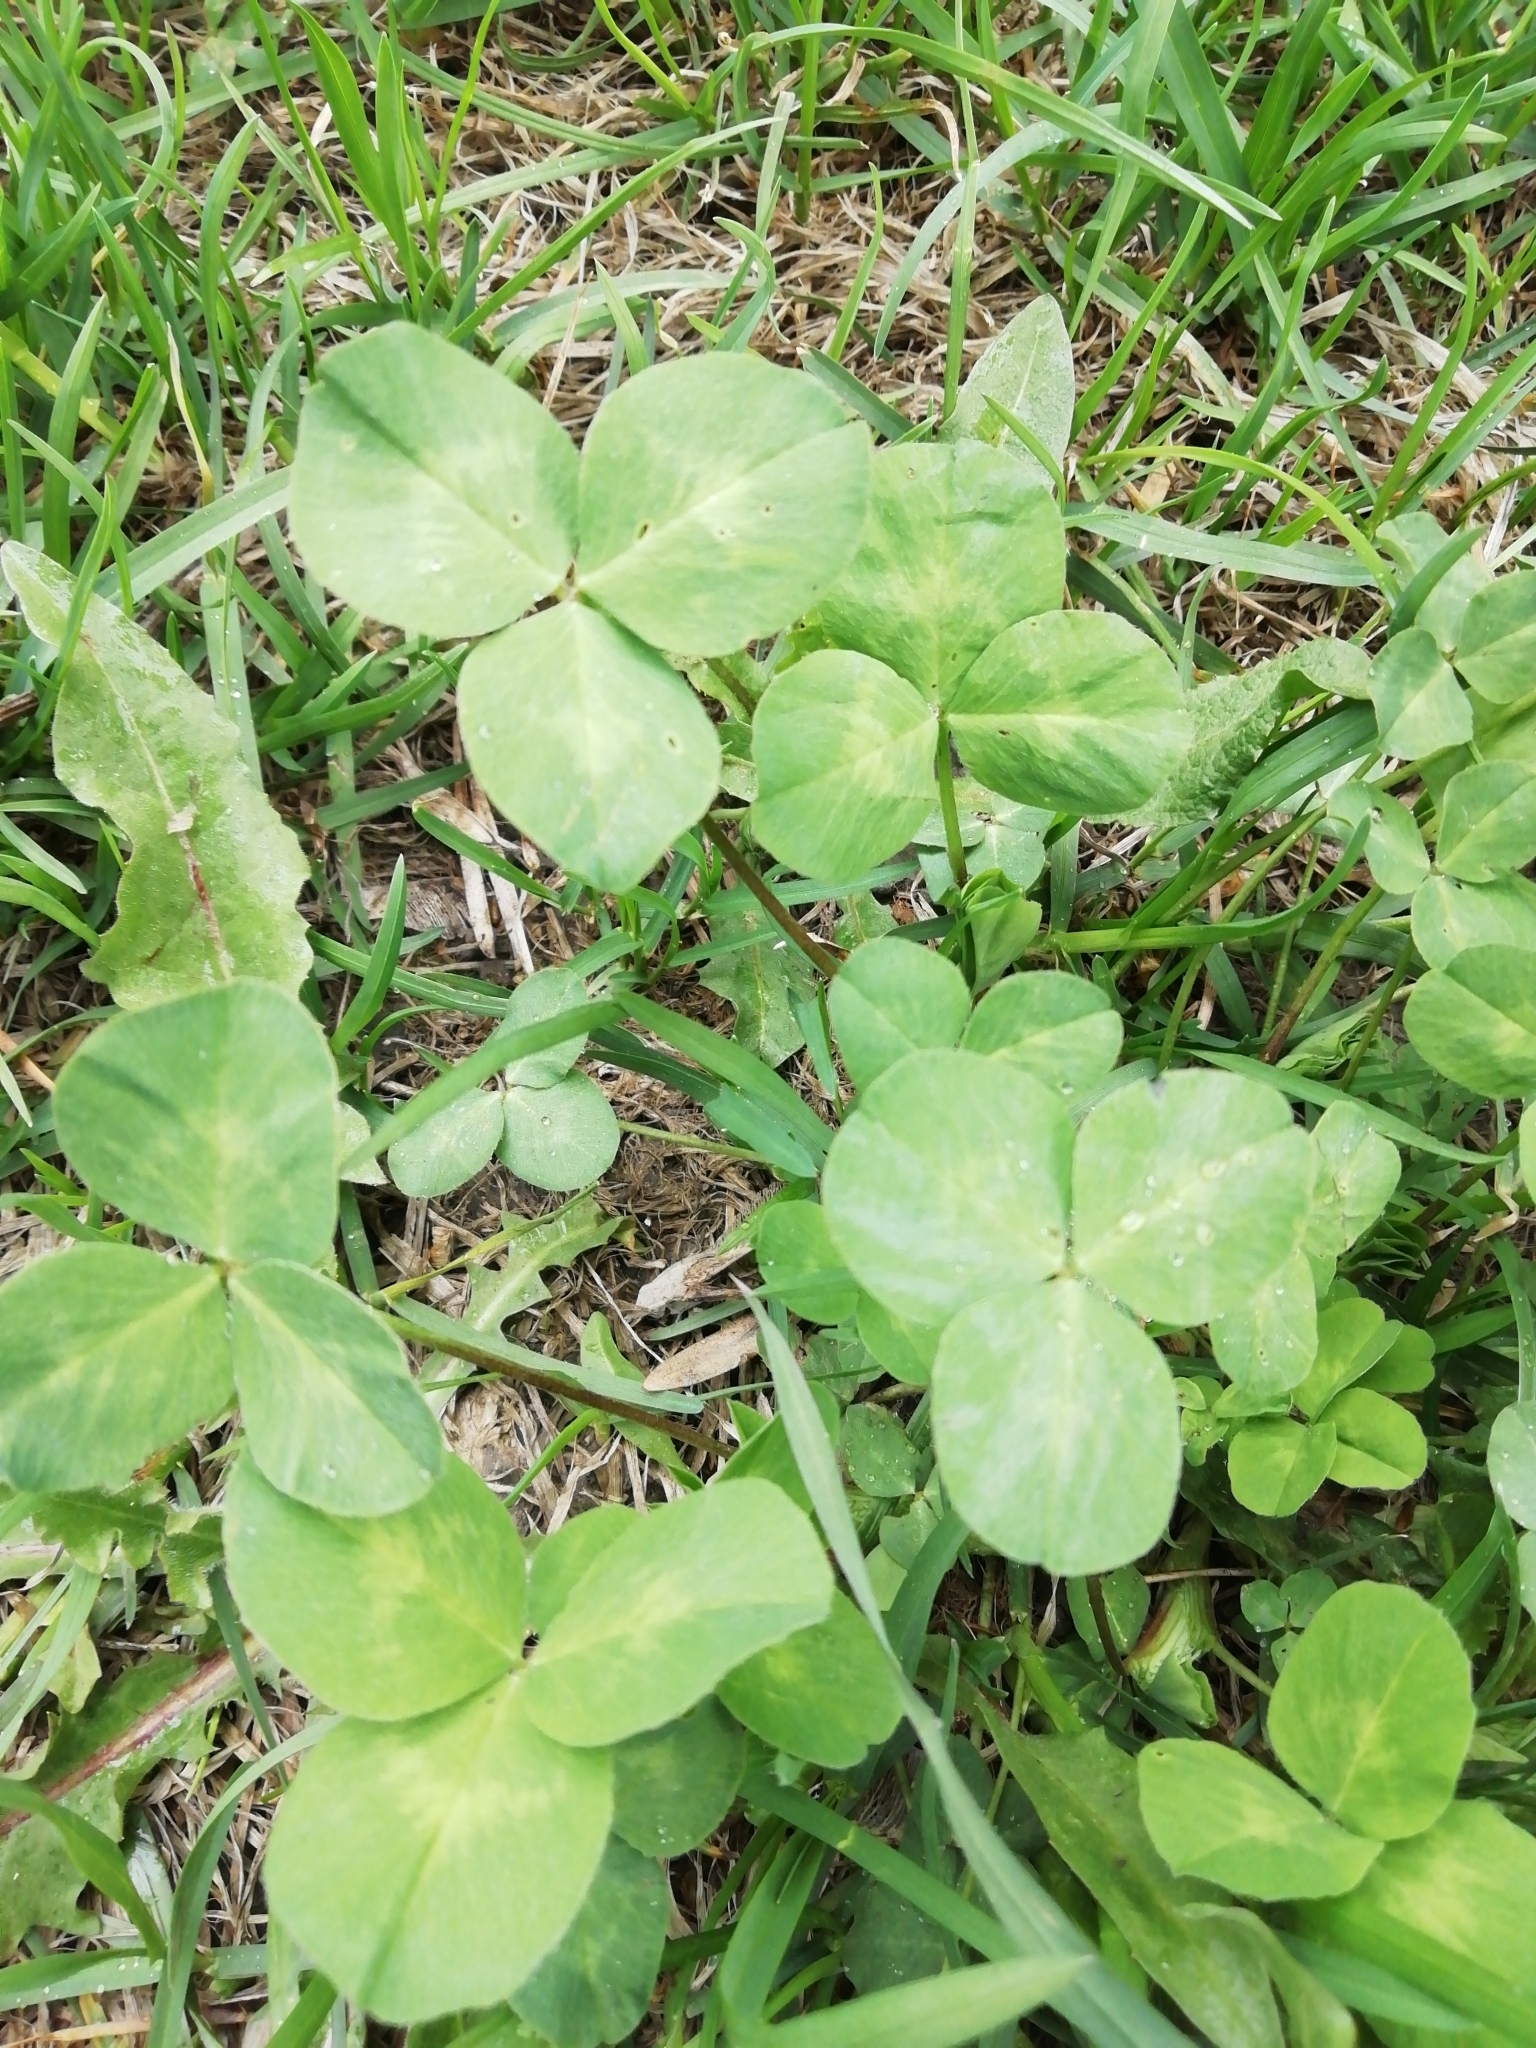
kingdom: Plantae
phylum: Tracheophyta
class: Magnoliopsida
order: Fabales
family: Fabaceae
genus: Trifolium
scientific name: Trifolium pratense
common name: Red clover
